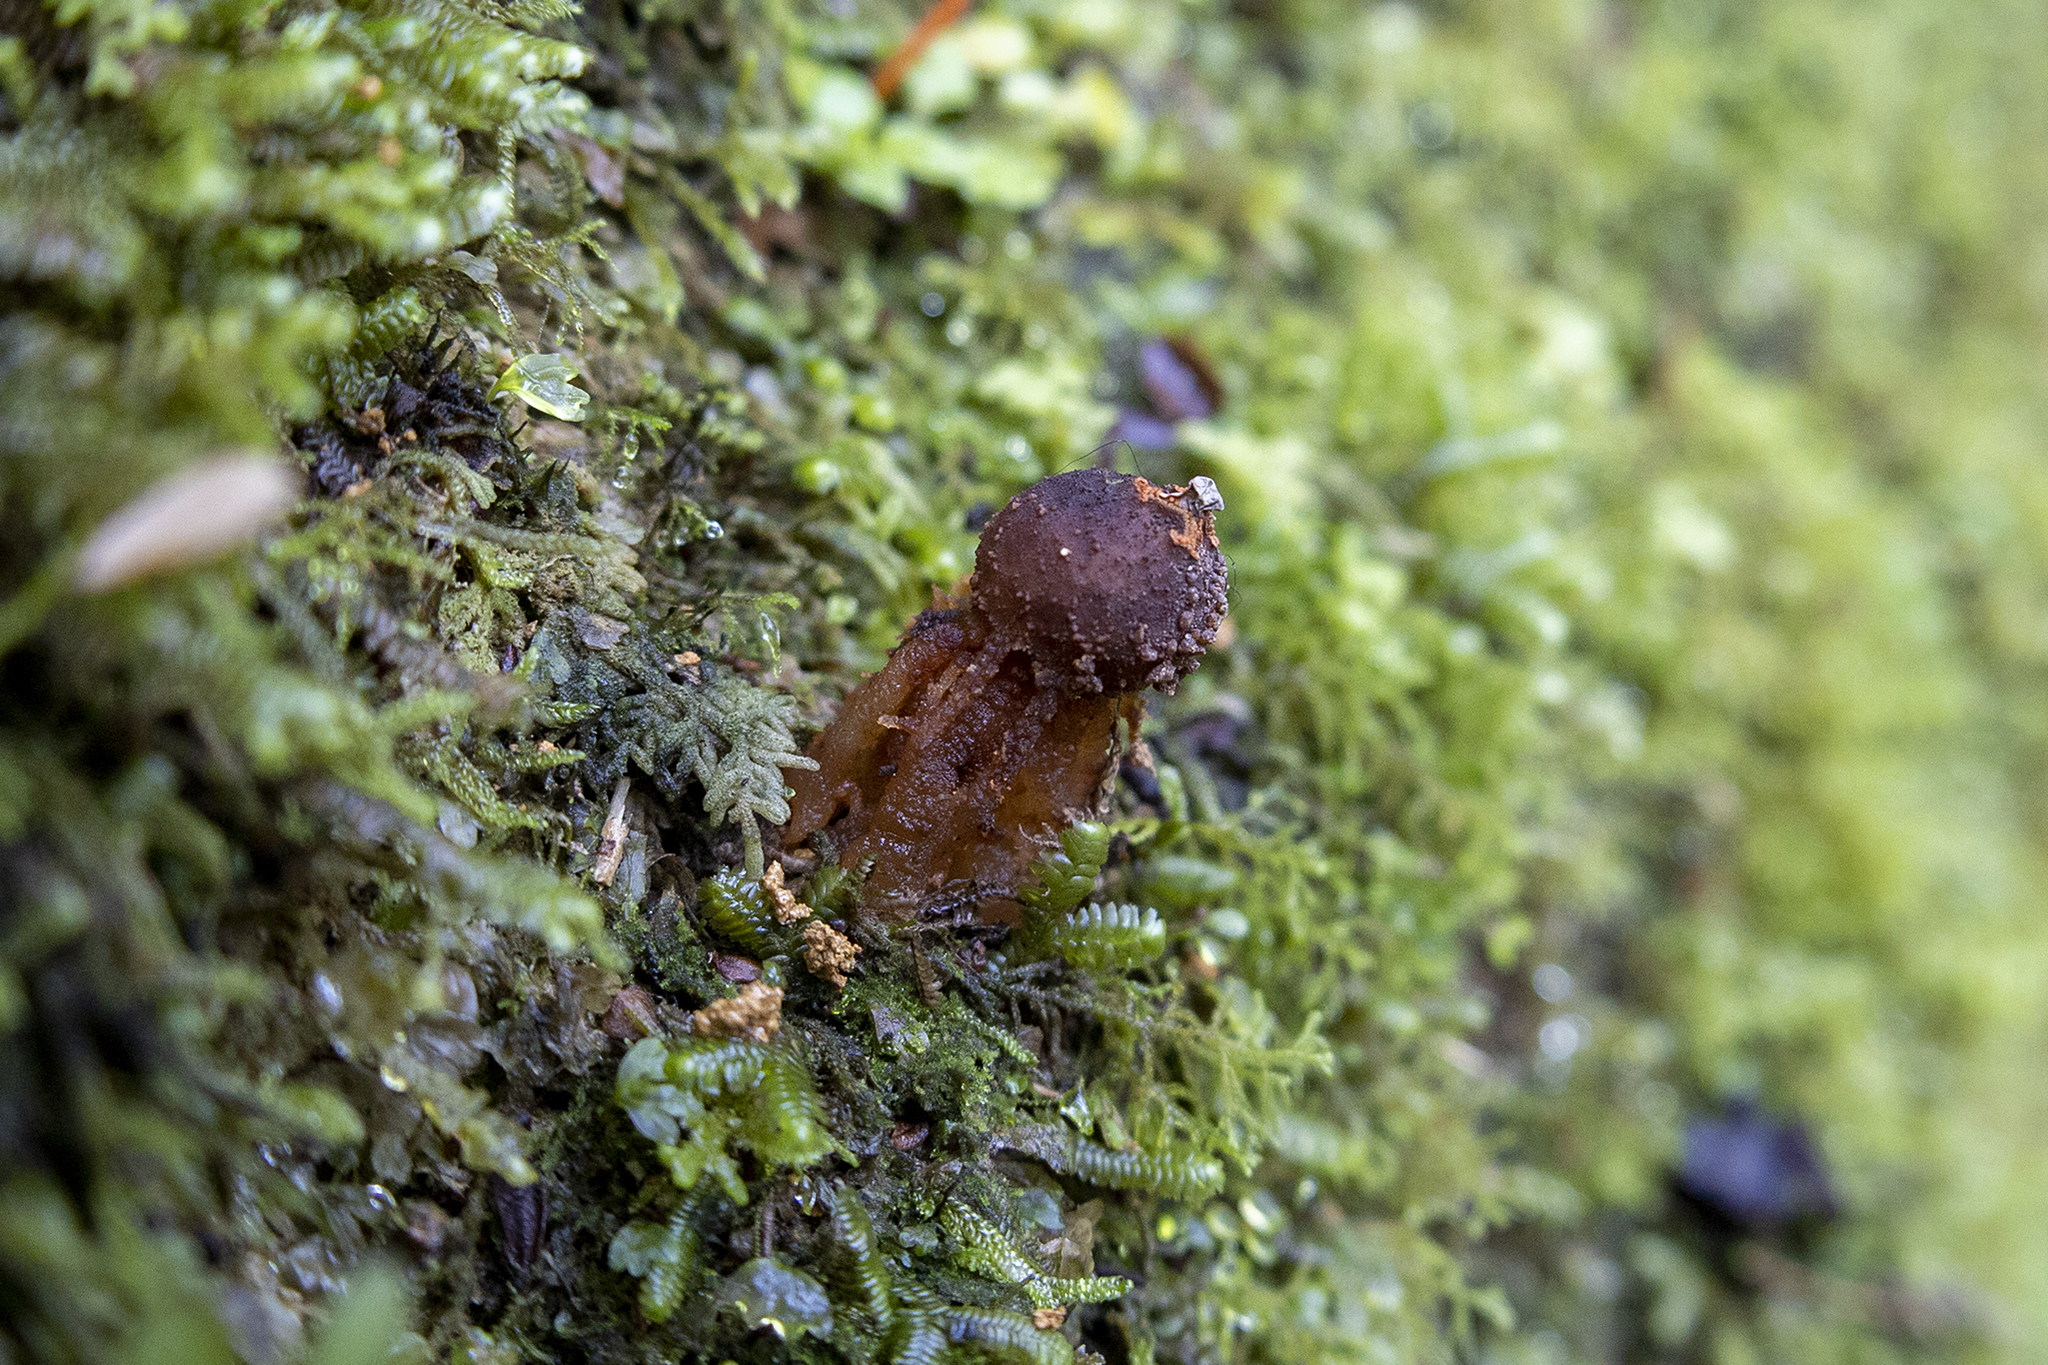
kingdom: Fungi
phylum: Basidiomycota
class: Agaricomycetes
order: Boletales
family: Calostomataceae
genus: Calostoma
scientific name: Calostoma rodwayi
